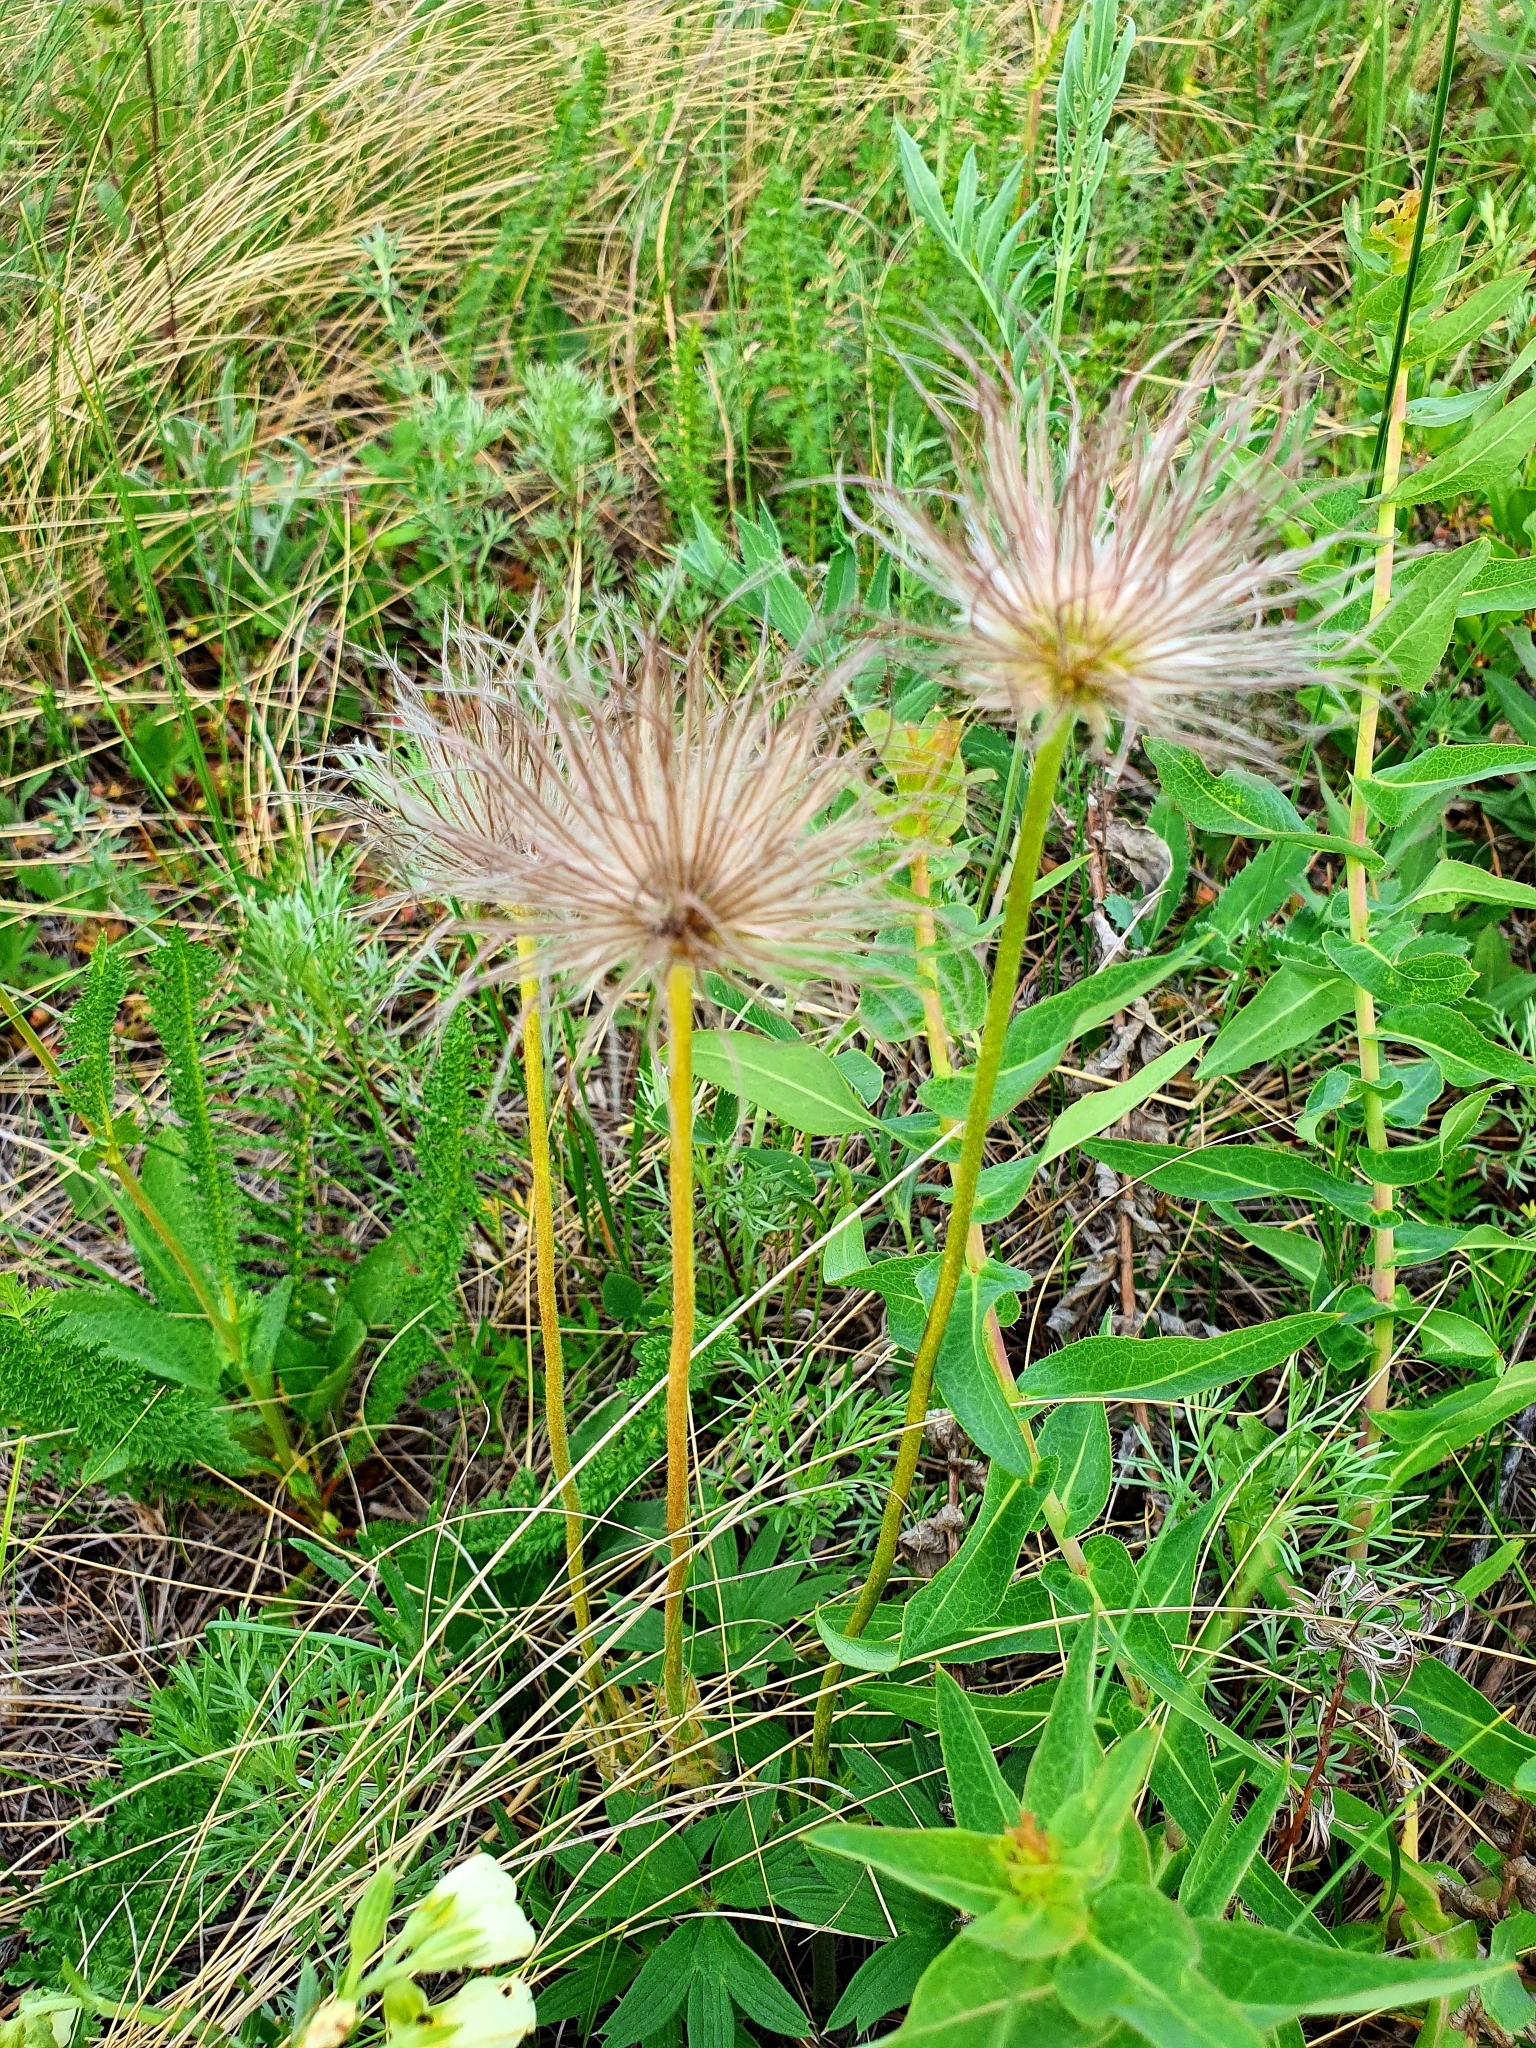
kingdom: Plantae
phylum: Tracheophyta
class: Magnoliopsida
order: Ranunculales
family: Ranunculaceae
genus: Pulsatilla
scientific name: Pulsatilla patens
